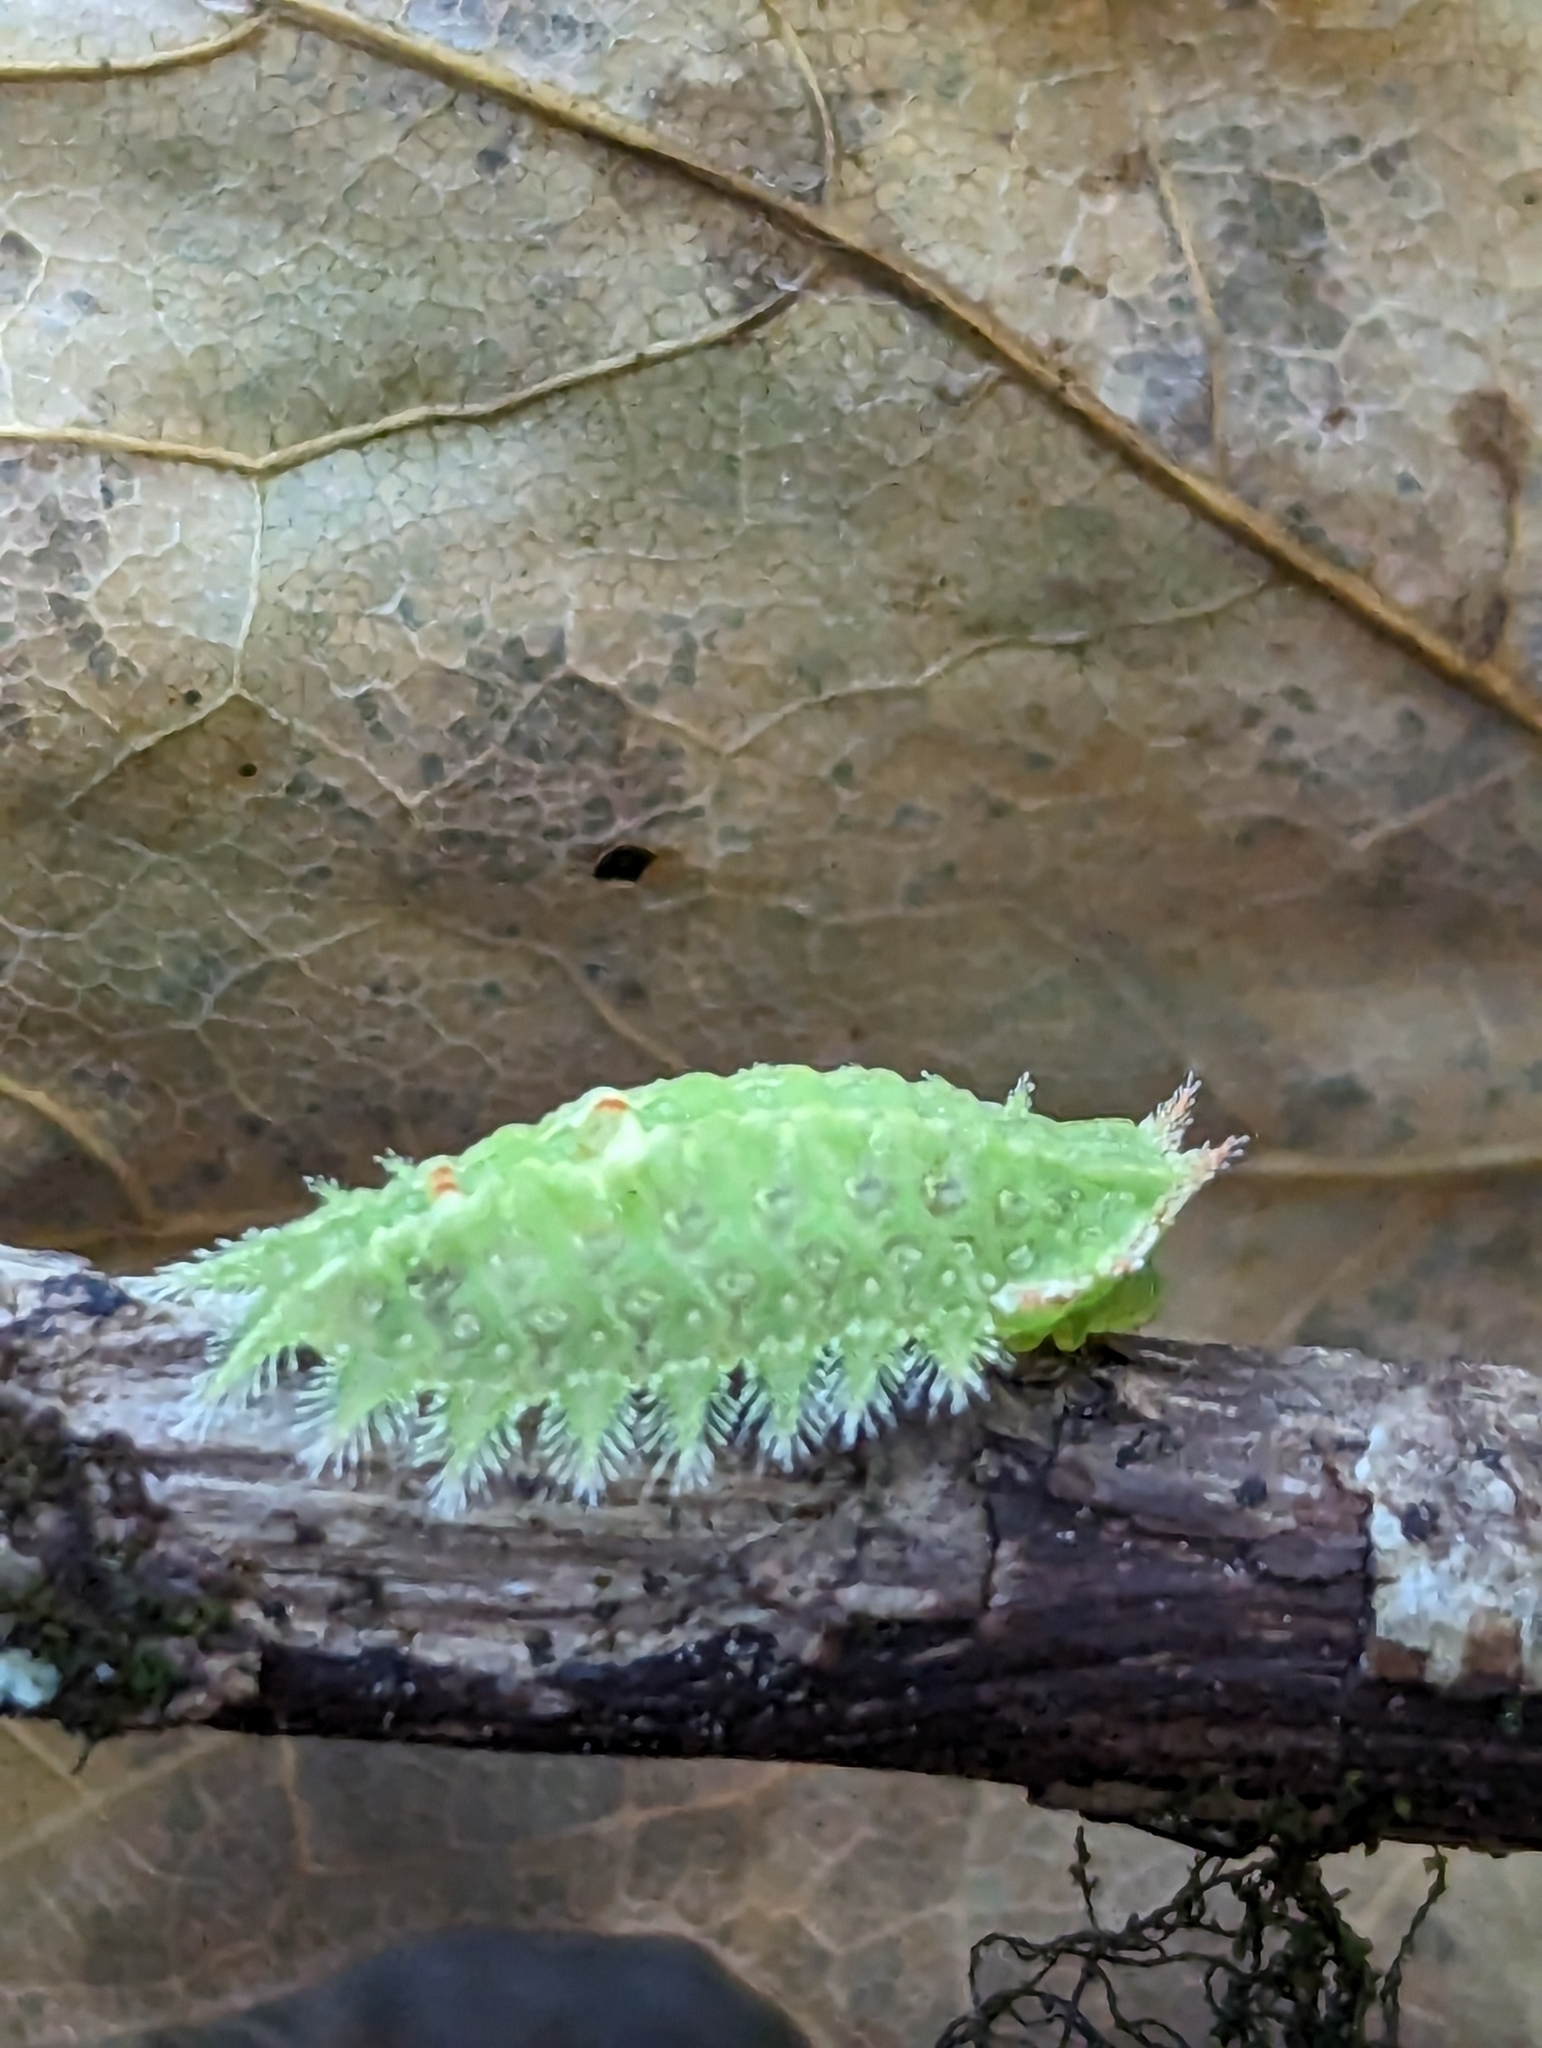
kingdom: Animalia
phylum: Arthropoda
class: Insecta
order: Lepidoptera
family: Limacodidae
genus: Isa
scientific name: Isa textula
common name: Crowned slug moth
